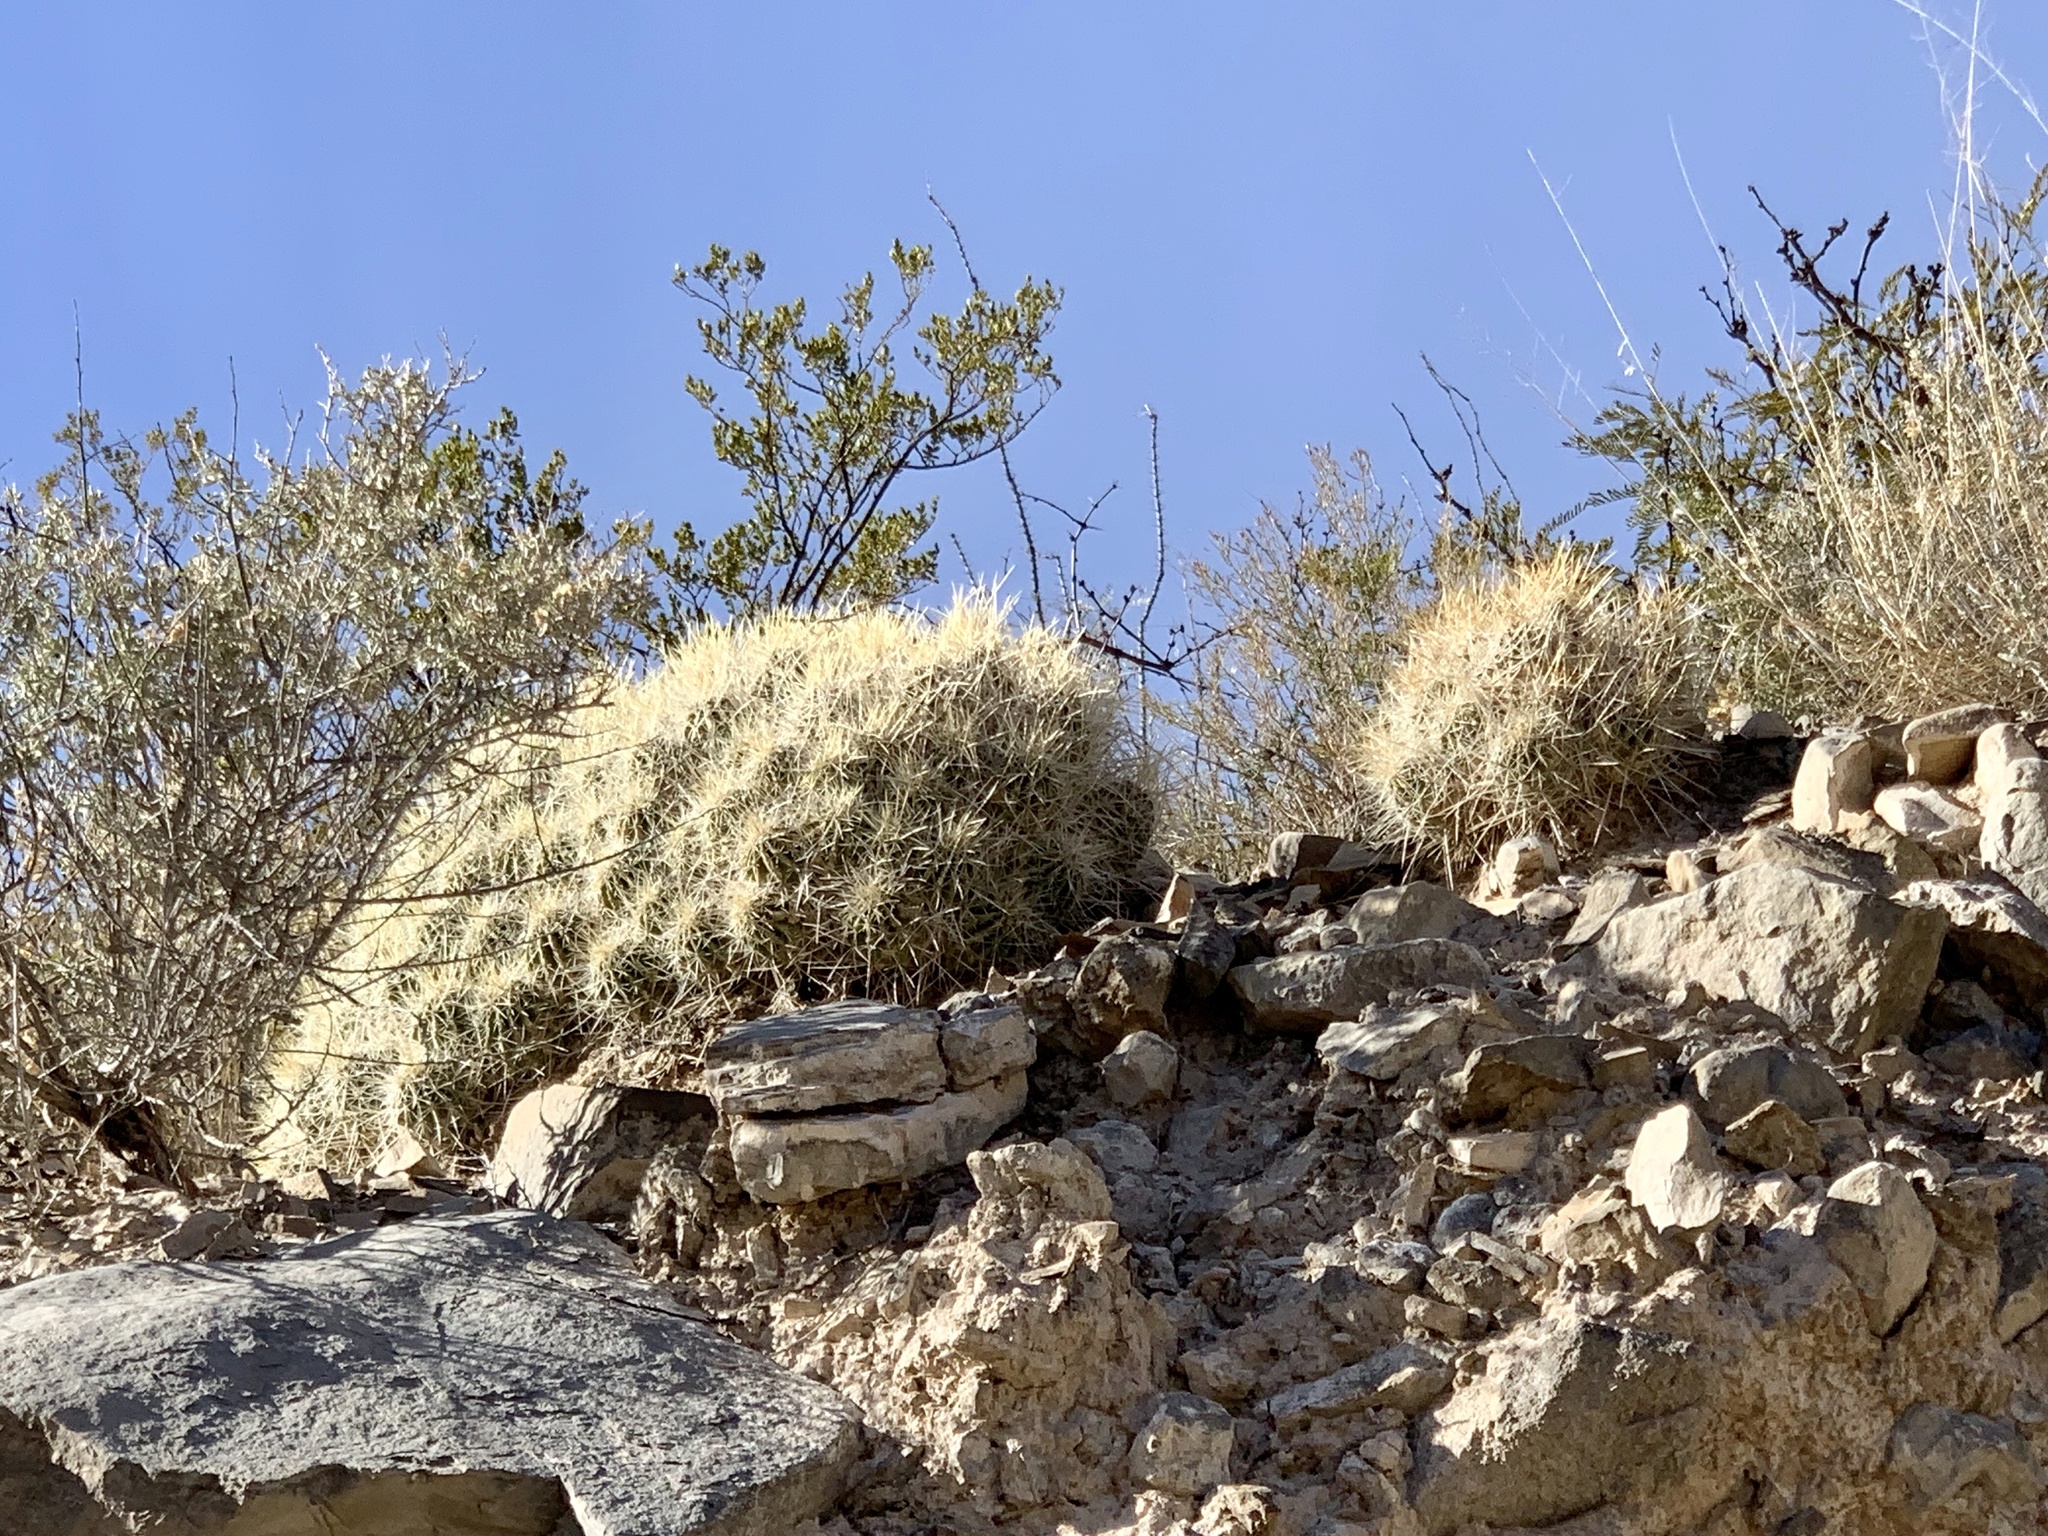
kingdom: Plantae
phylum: Tracheophyta
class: Magnoliopsida
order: Caryophyllales
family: Cactaceae
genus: Echinocereus
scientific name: Echinocereus stramineus
